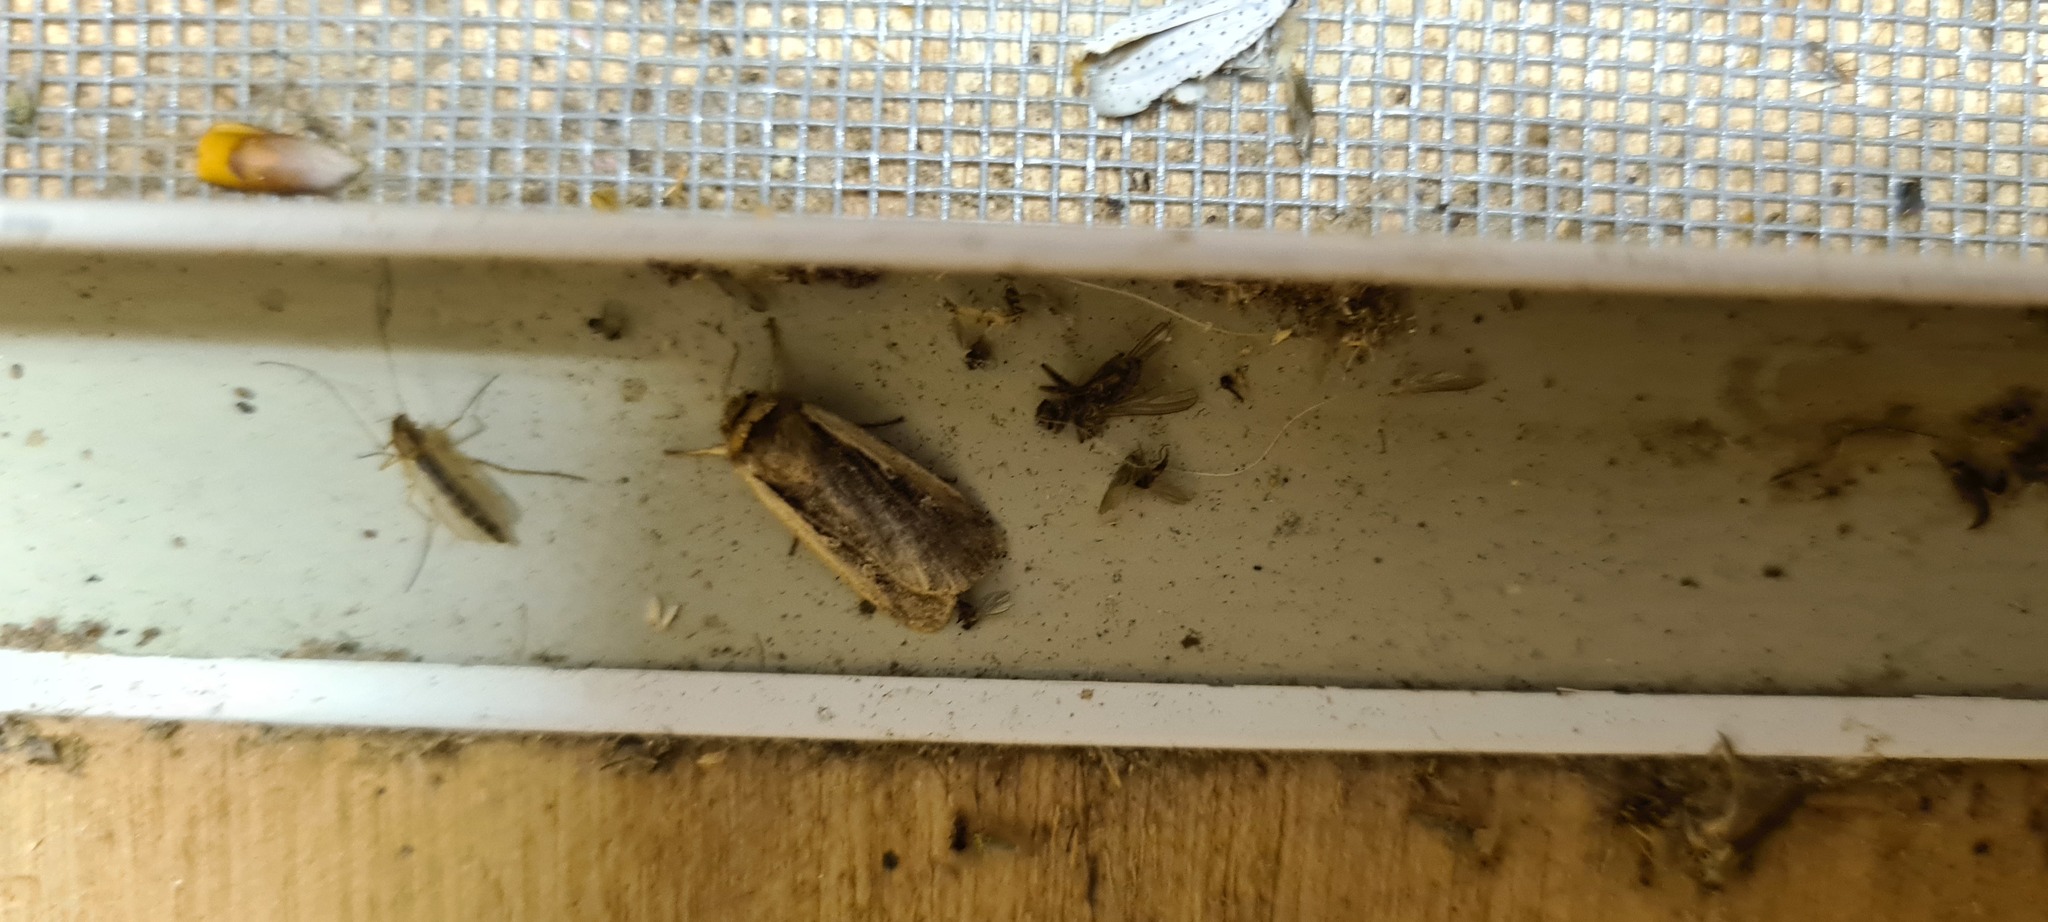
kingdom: Animalia
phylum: Arthropoda
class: Insecta
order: Lepidoptera
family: Noctuidae
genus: Ochropleura
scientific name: Ochropleura plecta
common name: Flame shoulder
